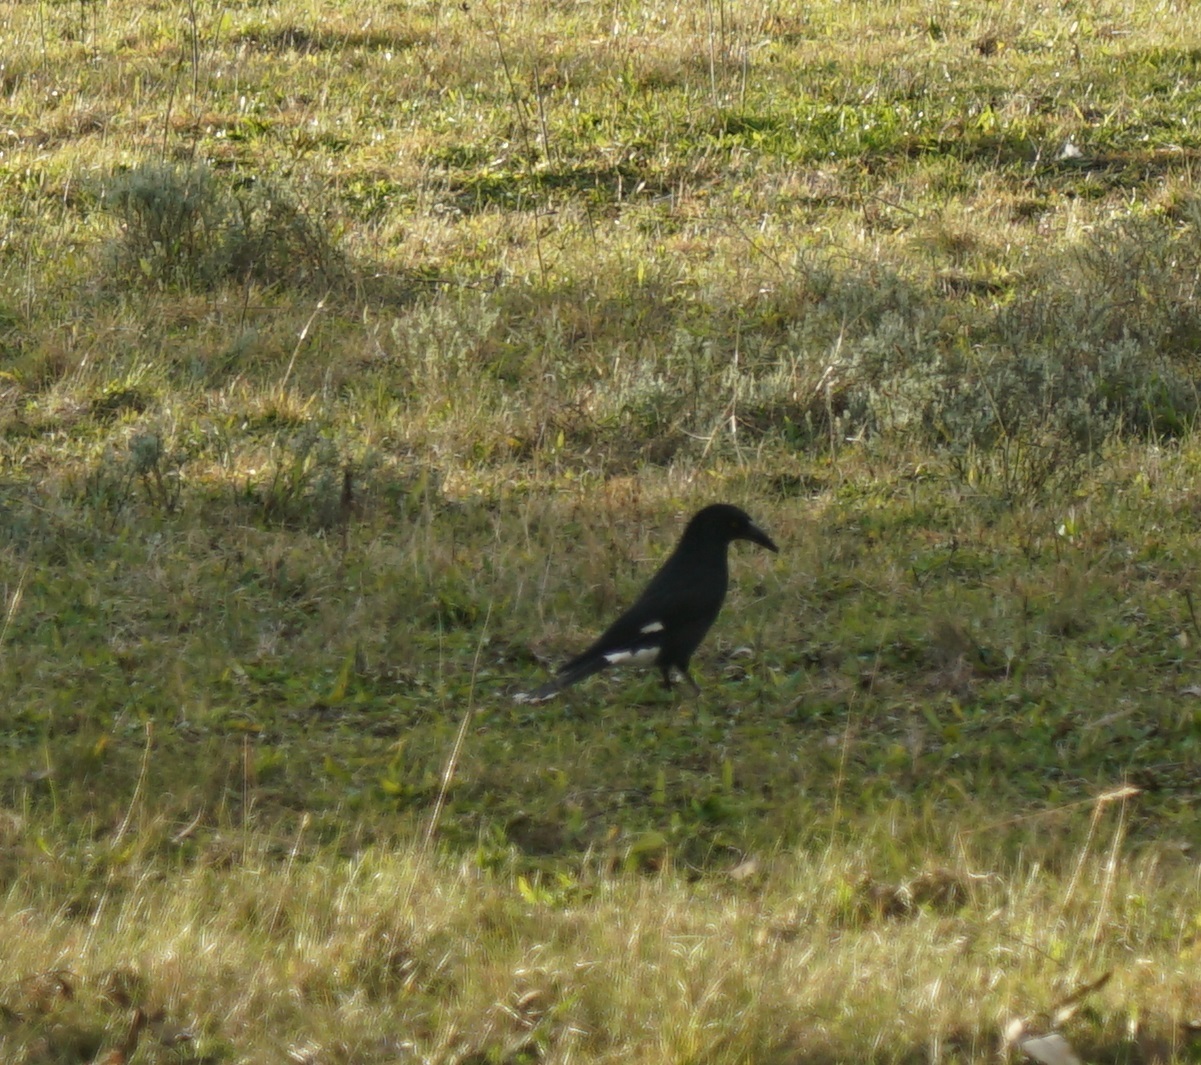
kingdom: Animalia
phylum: Chordata
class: Aves
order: Passeriformes
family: Cracticidae
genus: Strepera
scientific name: Strepera graculina
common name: Pied currawong
